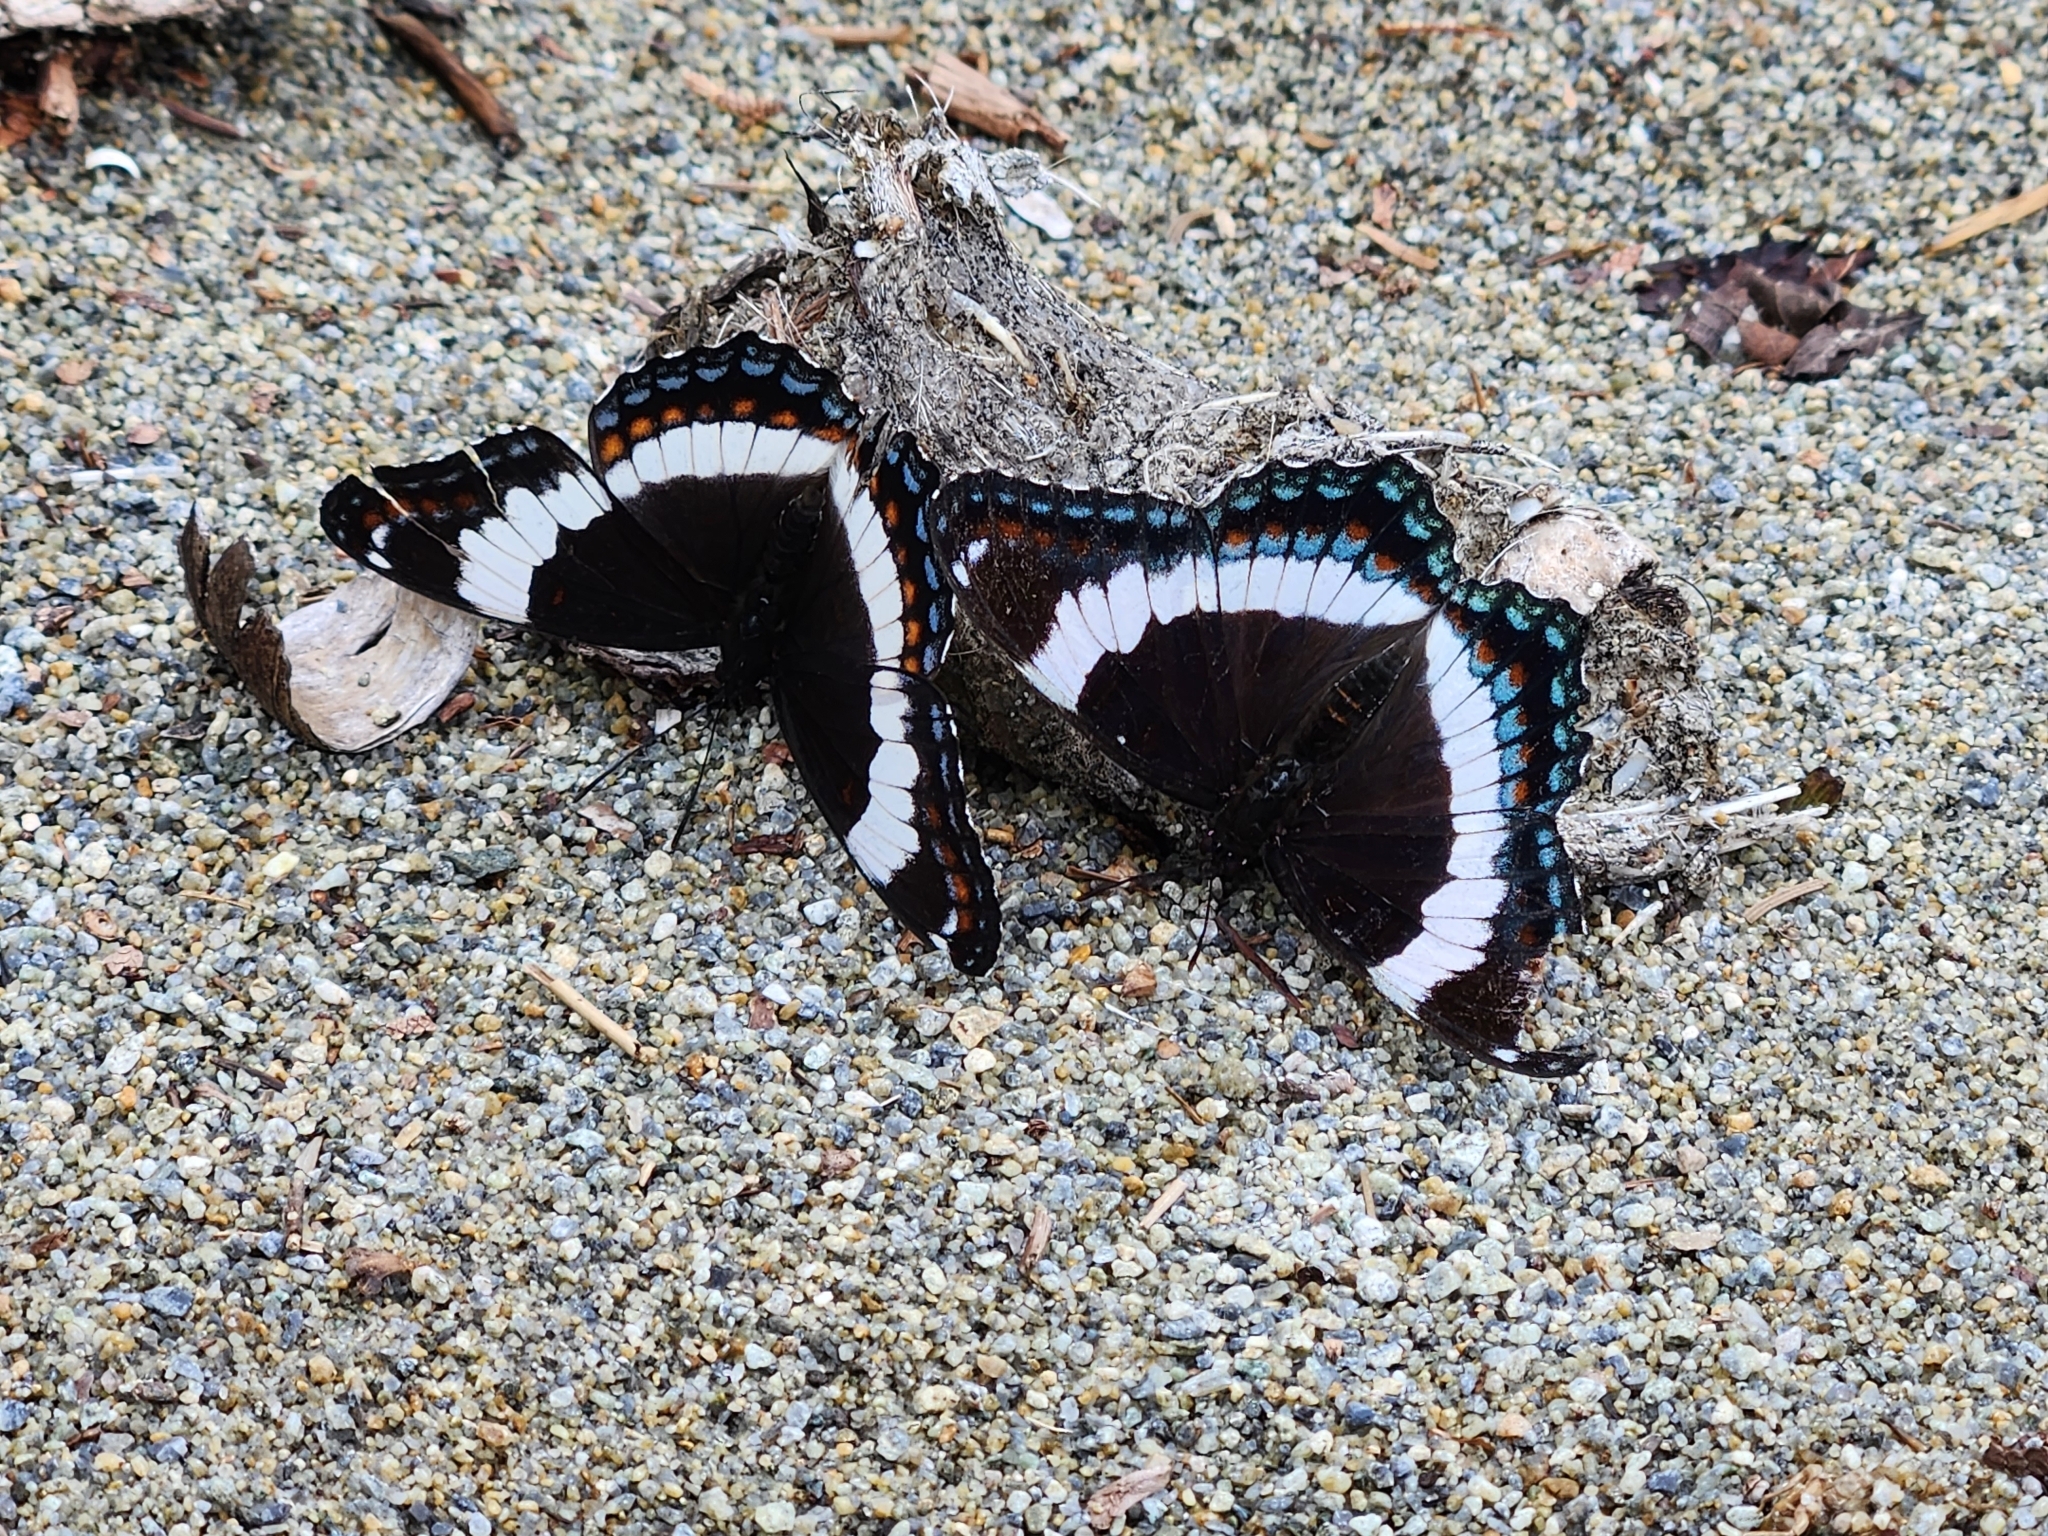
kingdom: Animalia
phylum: Arthropoda
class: Insecta
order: Lepidoptera
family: Nymphalidae
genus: Limenitis
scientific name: Limenitis arthemis
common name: Red-spotted admiral
